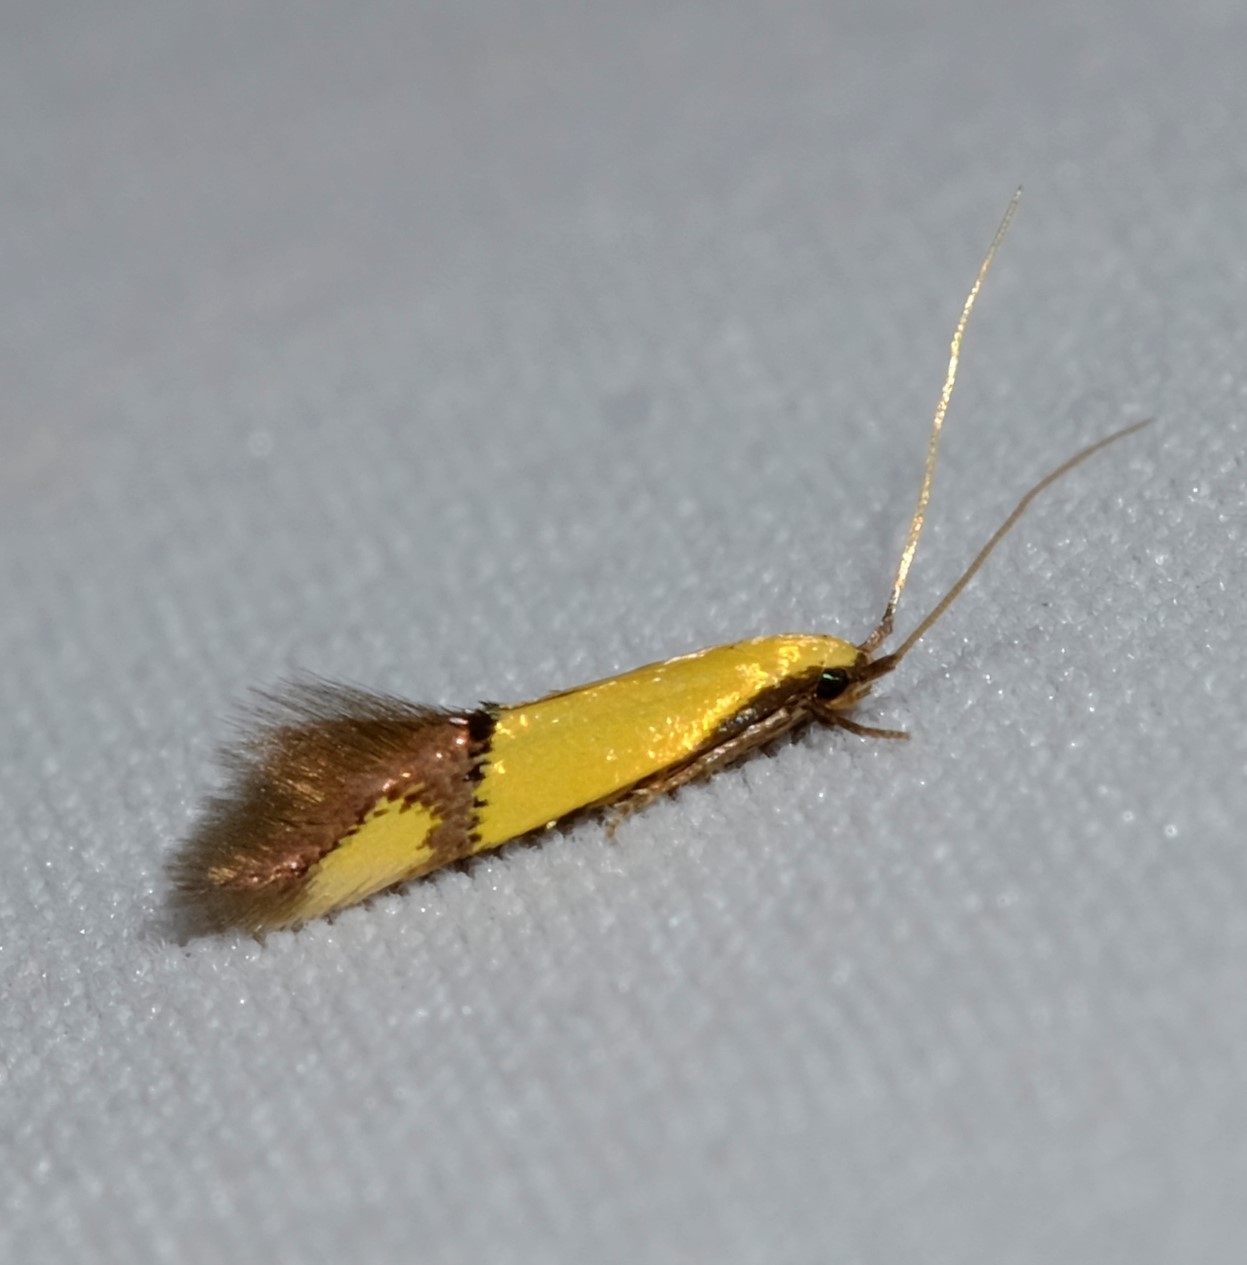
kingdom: Animalia
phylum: Arthropoda
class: Insecta
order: Lepidoptera
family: Tineidae
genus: Opogona
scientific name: Opogona stereodyta
